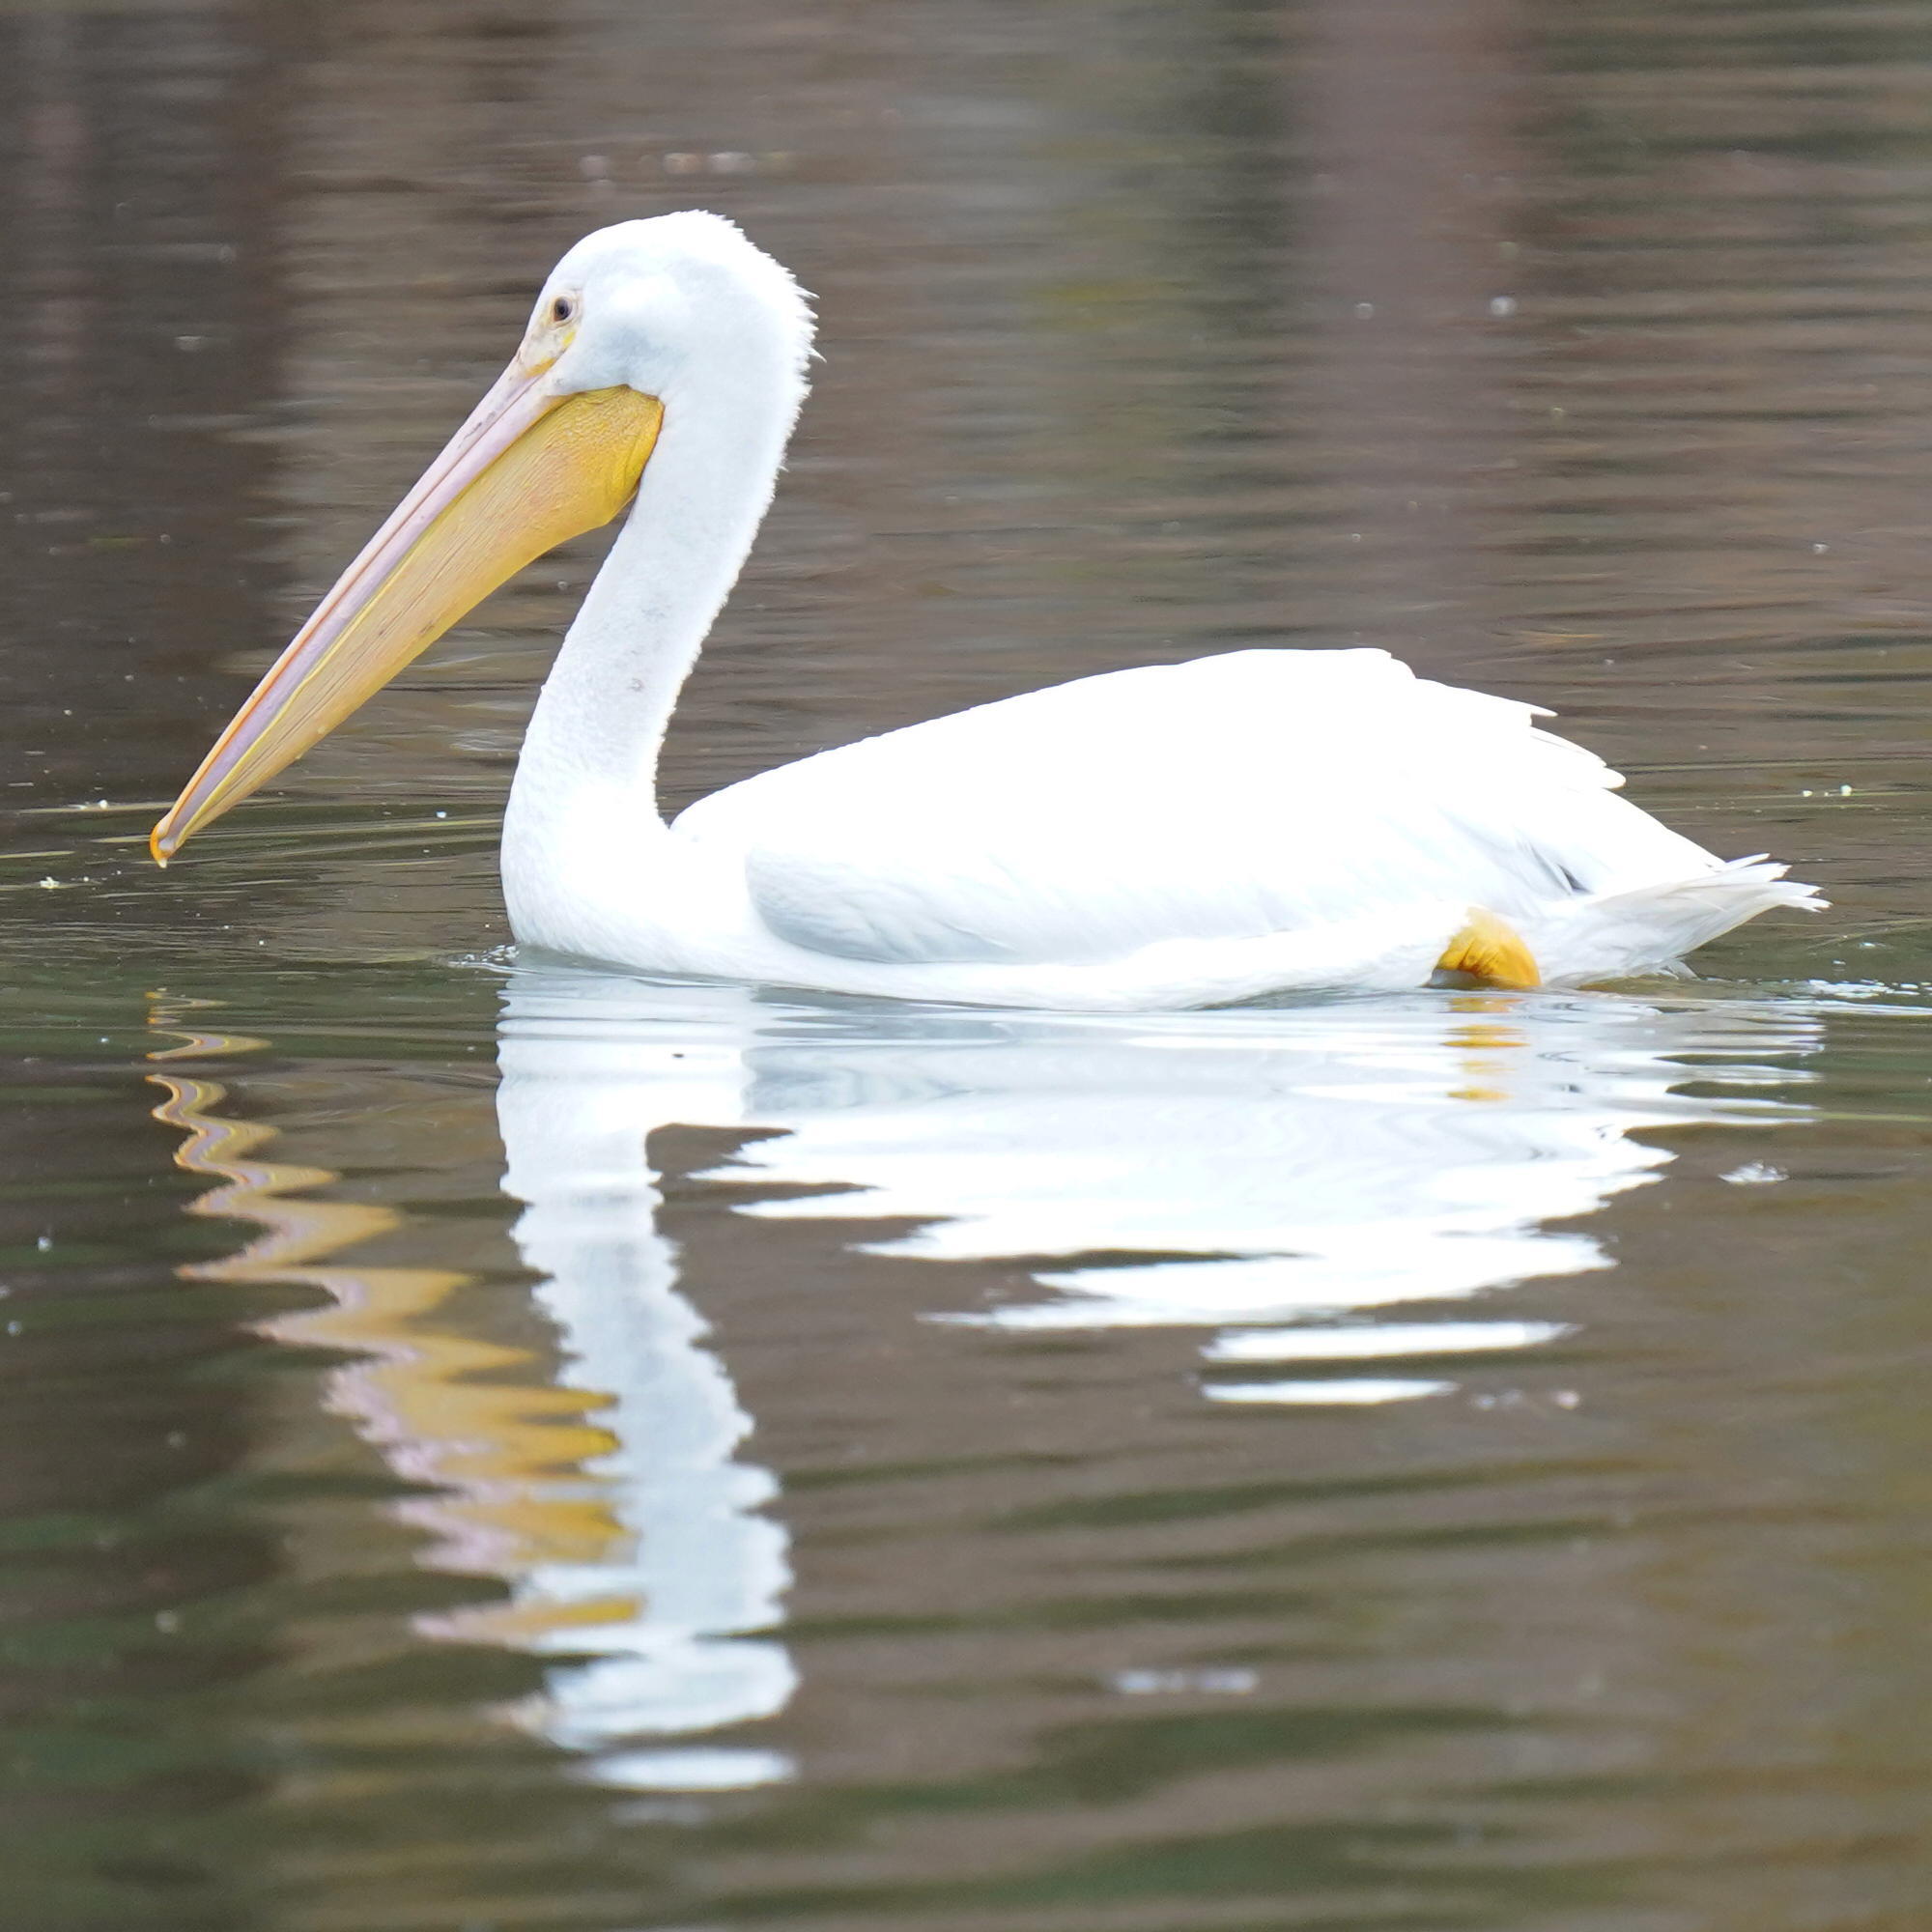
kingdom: Animalia
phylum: Chordata
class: Aves
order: Pelecaniformes
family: Pelecanidae
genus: Pelecanus
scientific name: Pelecanus erythrorhynchos
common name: American white pelican
